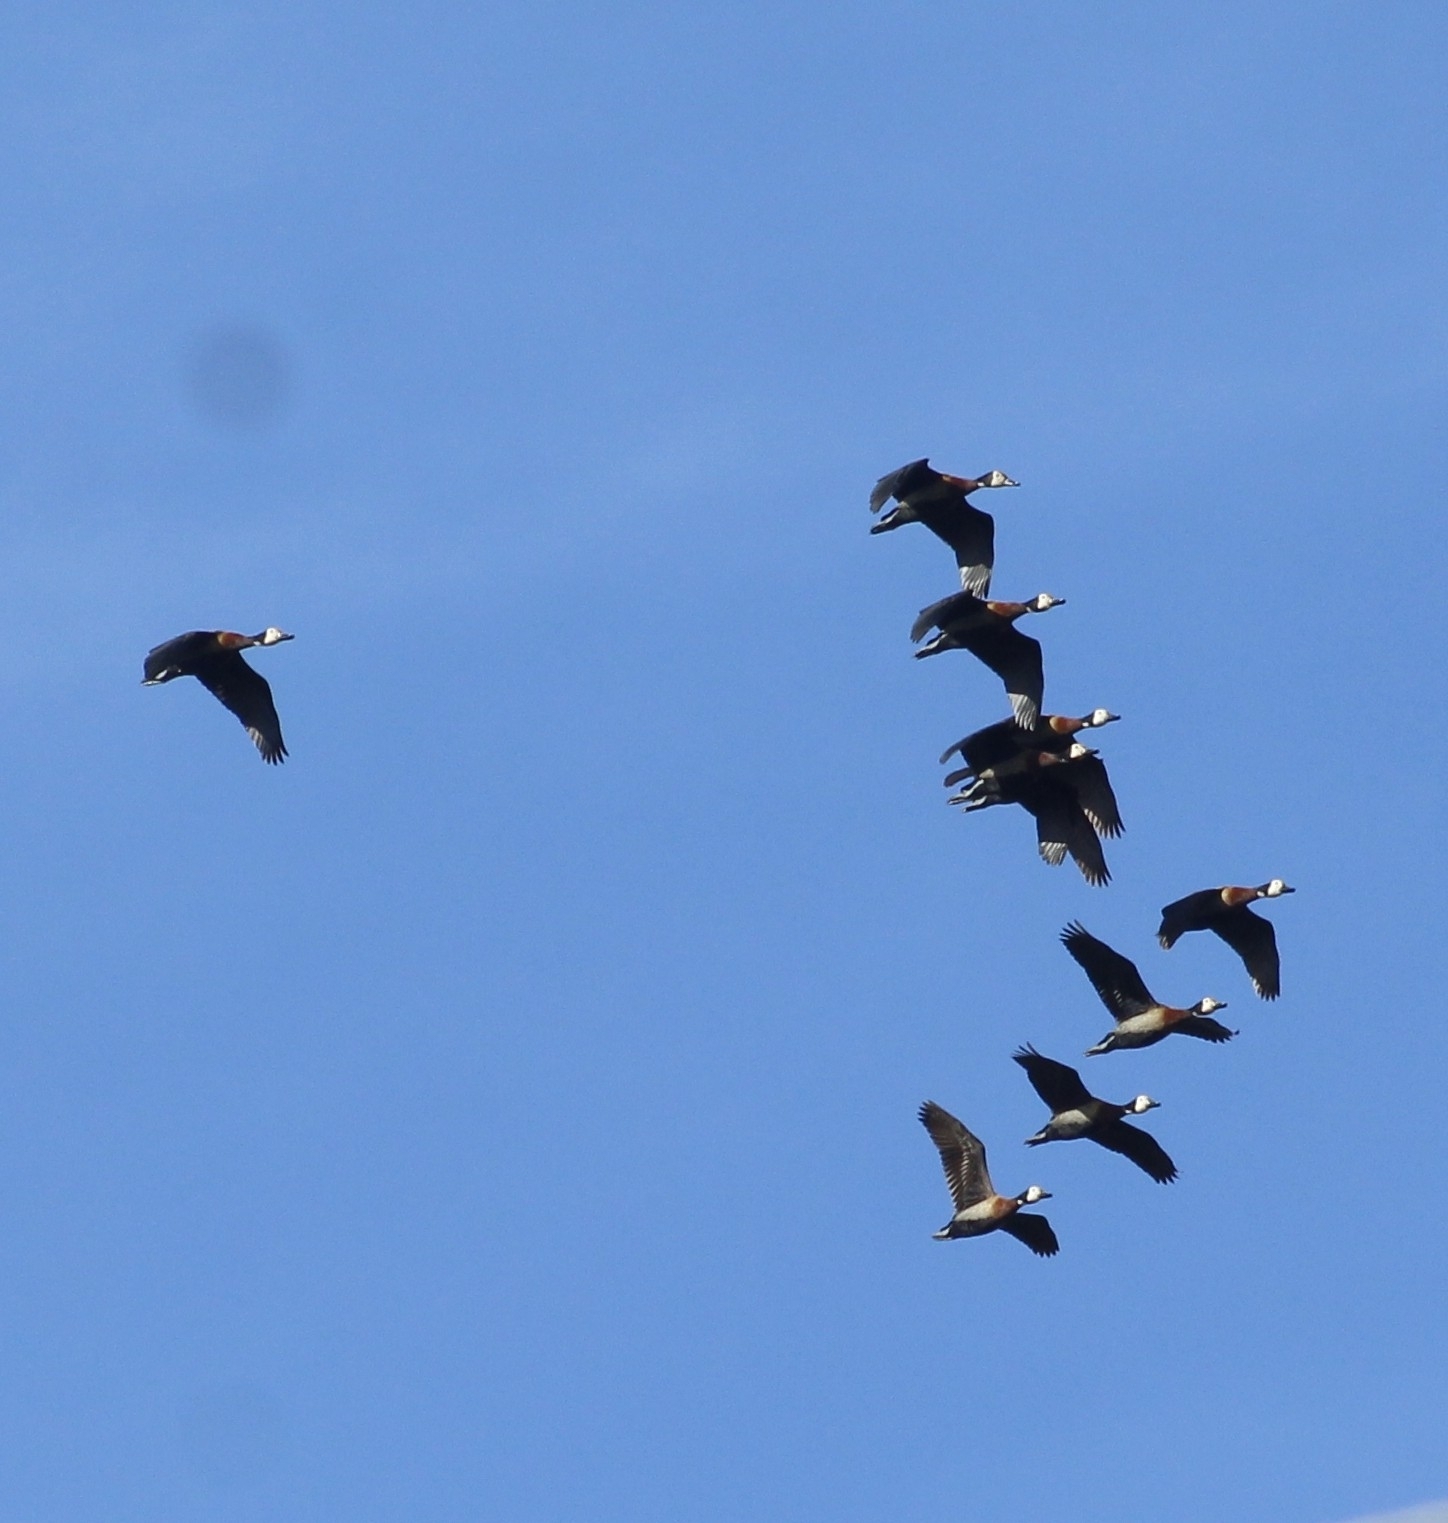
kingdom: Animalia
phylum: Chordata
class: Aves
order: Anseriformes
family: Anatidae
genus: Dendrocygna
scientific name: Dendrocygna viduata
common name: White-faced whistling duck
